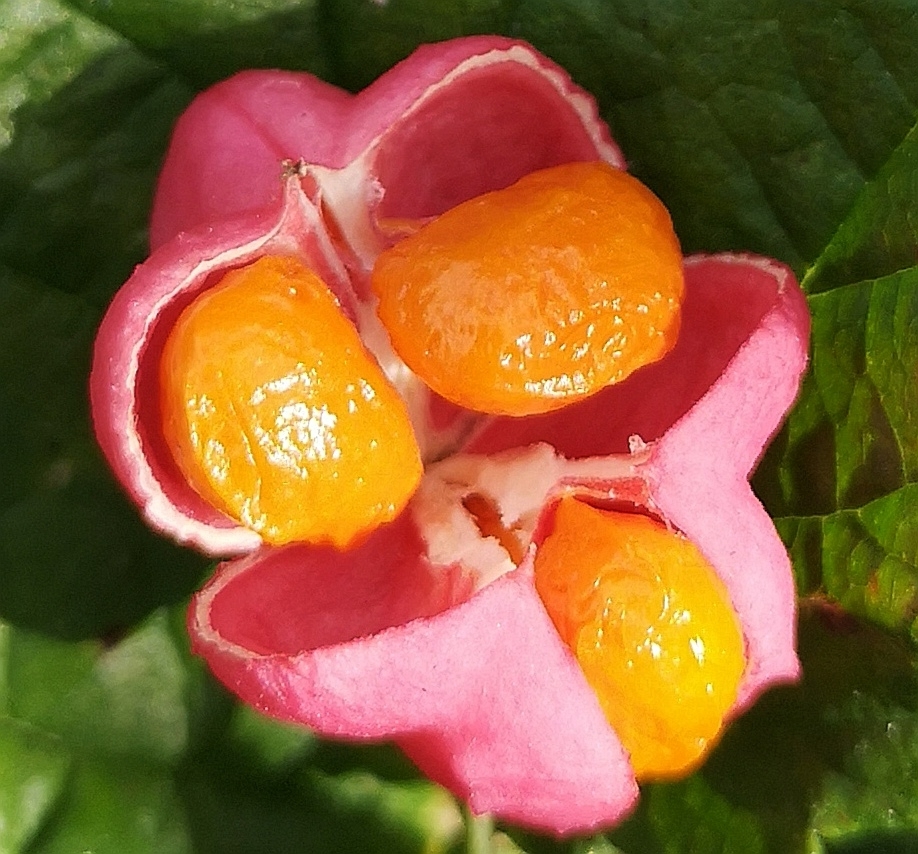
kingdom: Plantae
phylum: Tracheophyta
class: Magnoliopsida
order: Celastrales
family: Celastraceae
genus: Euonymus
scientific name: Euonymus europaeus
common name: Spindle
